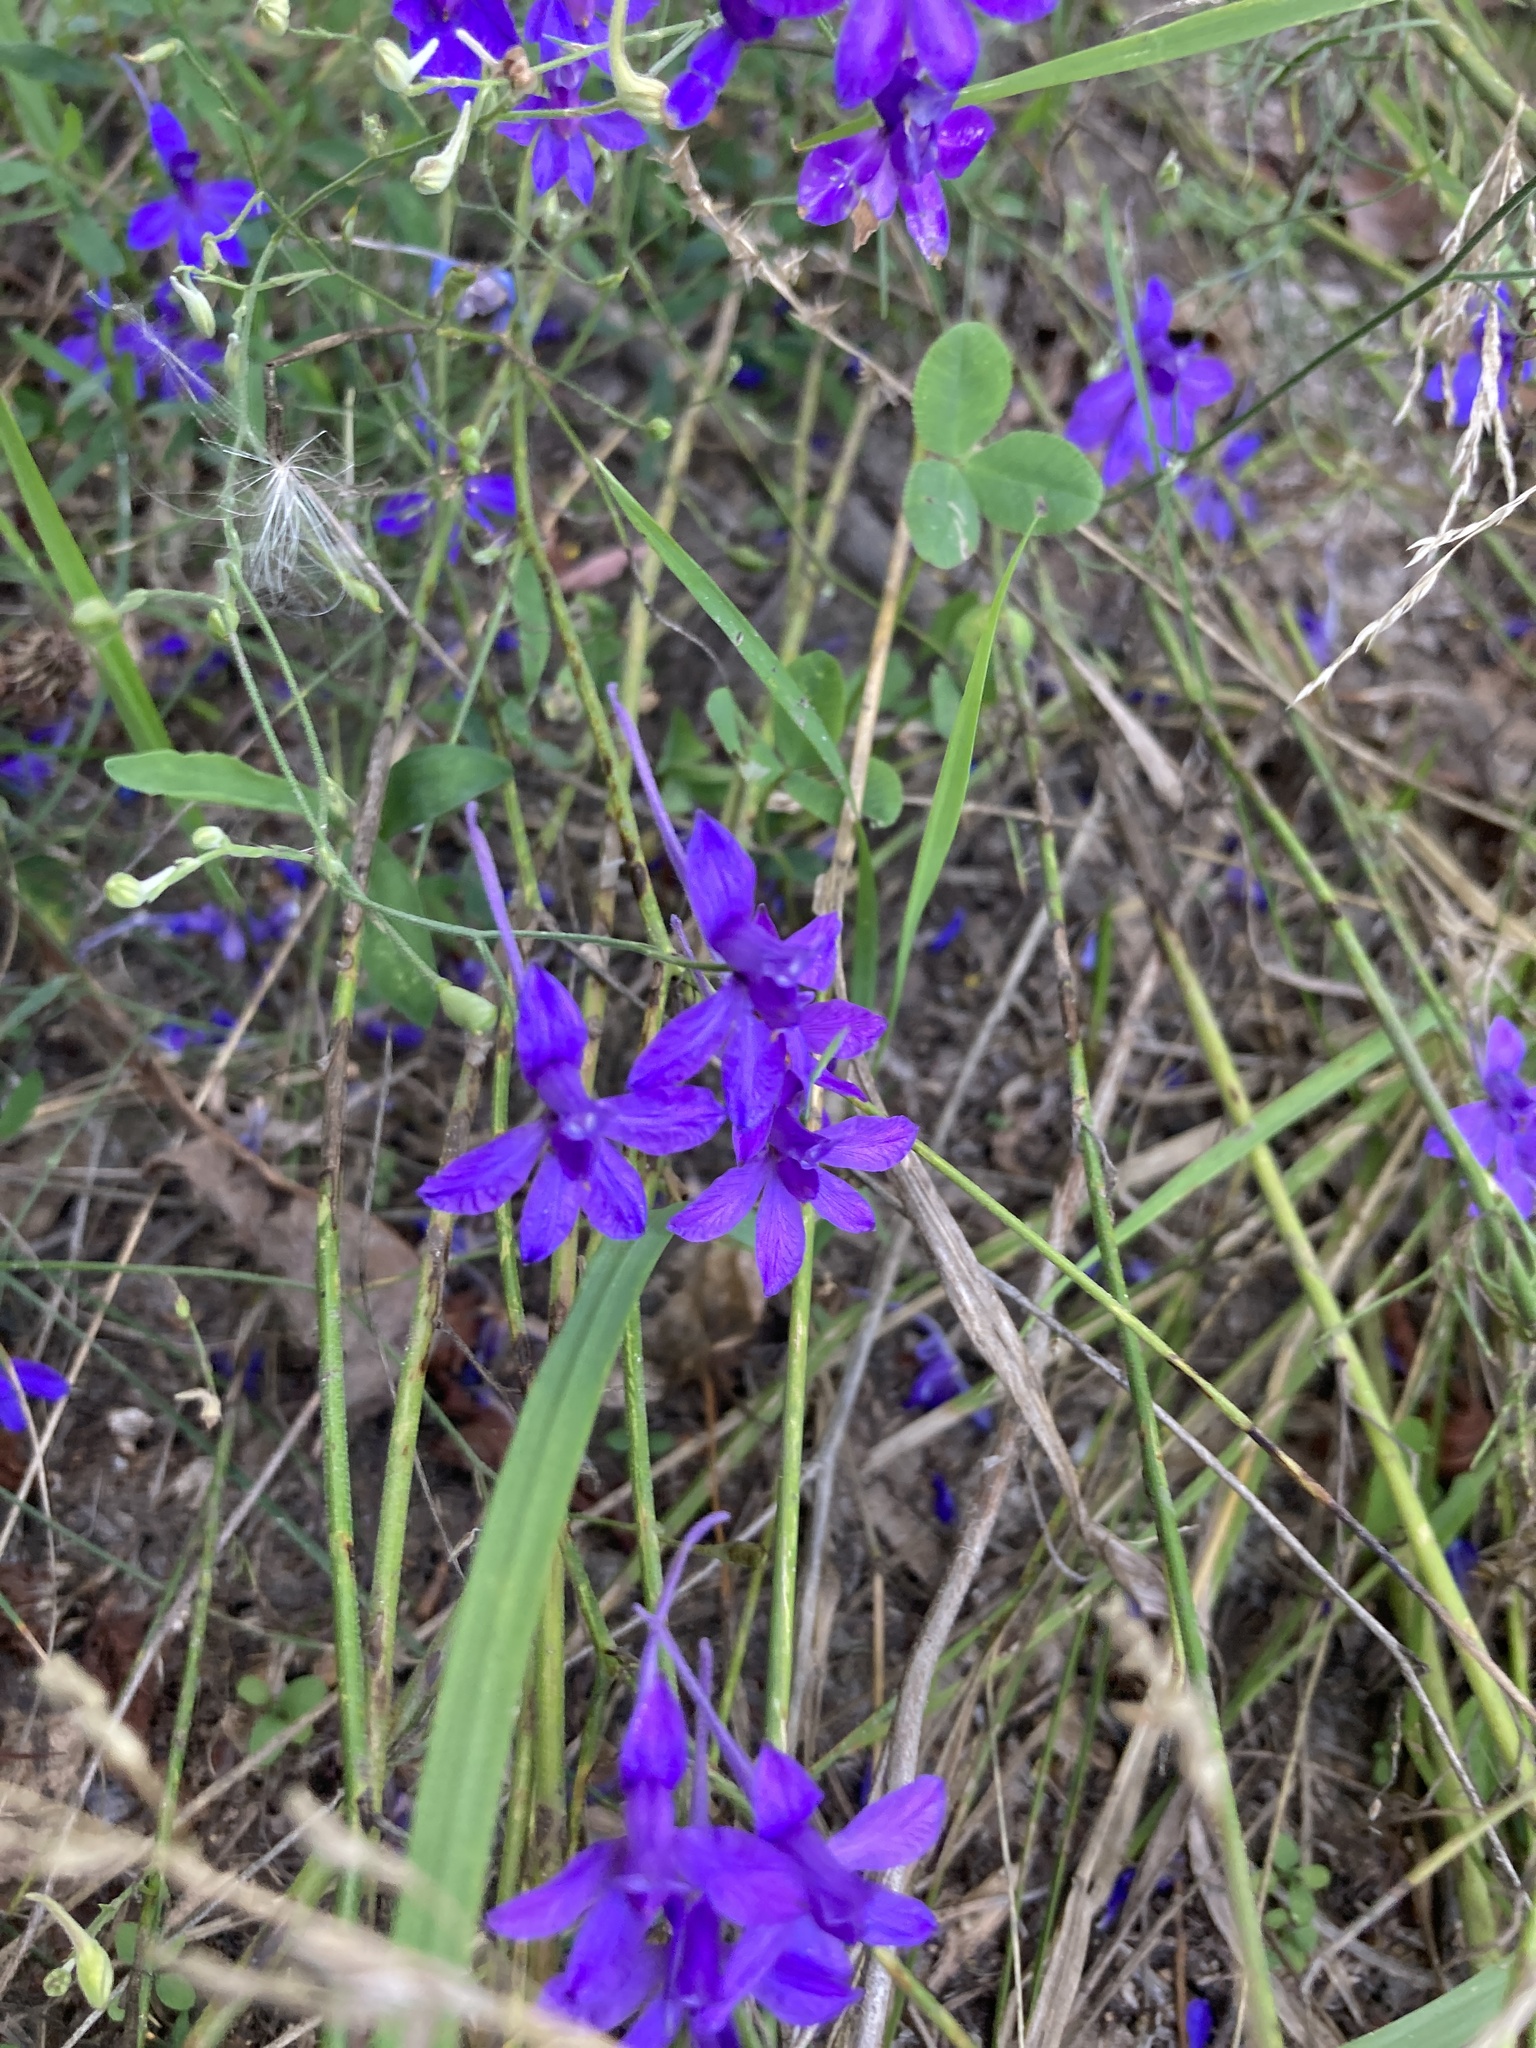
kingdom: Plantae
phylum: Tracheophyta
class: Magnoliopsida
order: Ranunculales
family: Ranunculaceae
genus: Delphinium
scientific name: Delphinium consolida
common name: Branching larkspur
